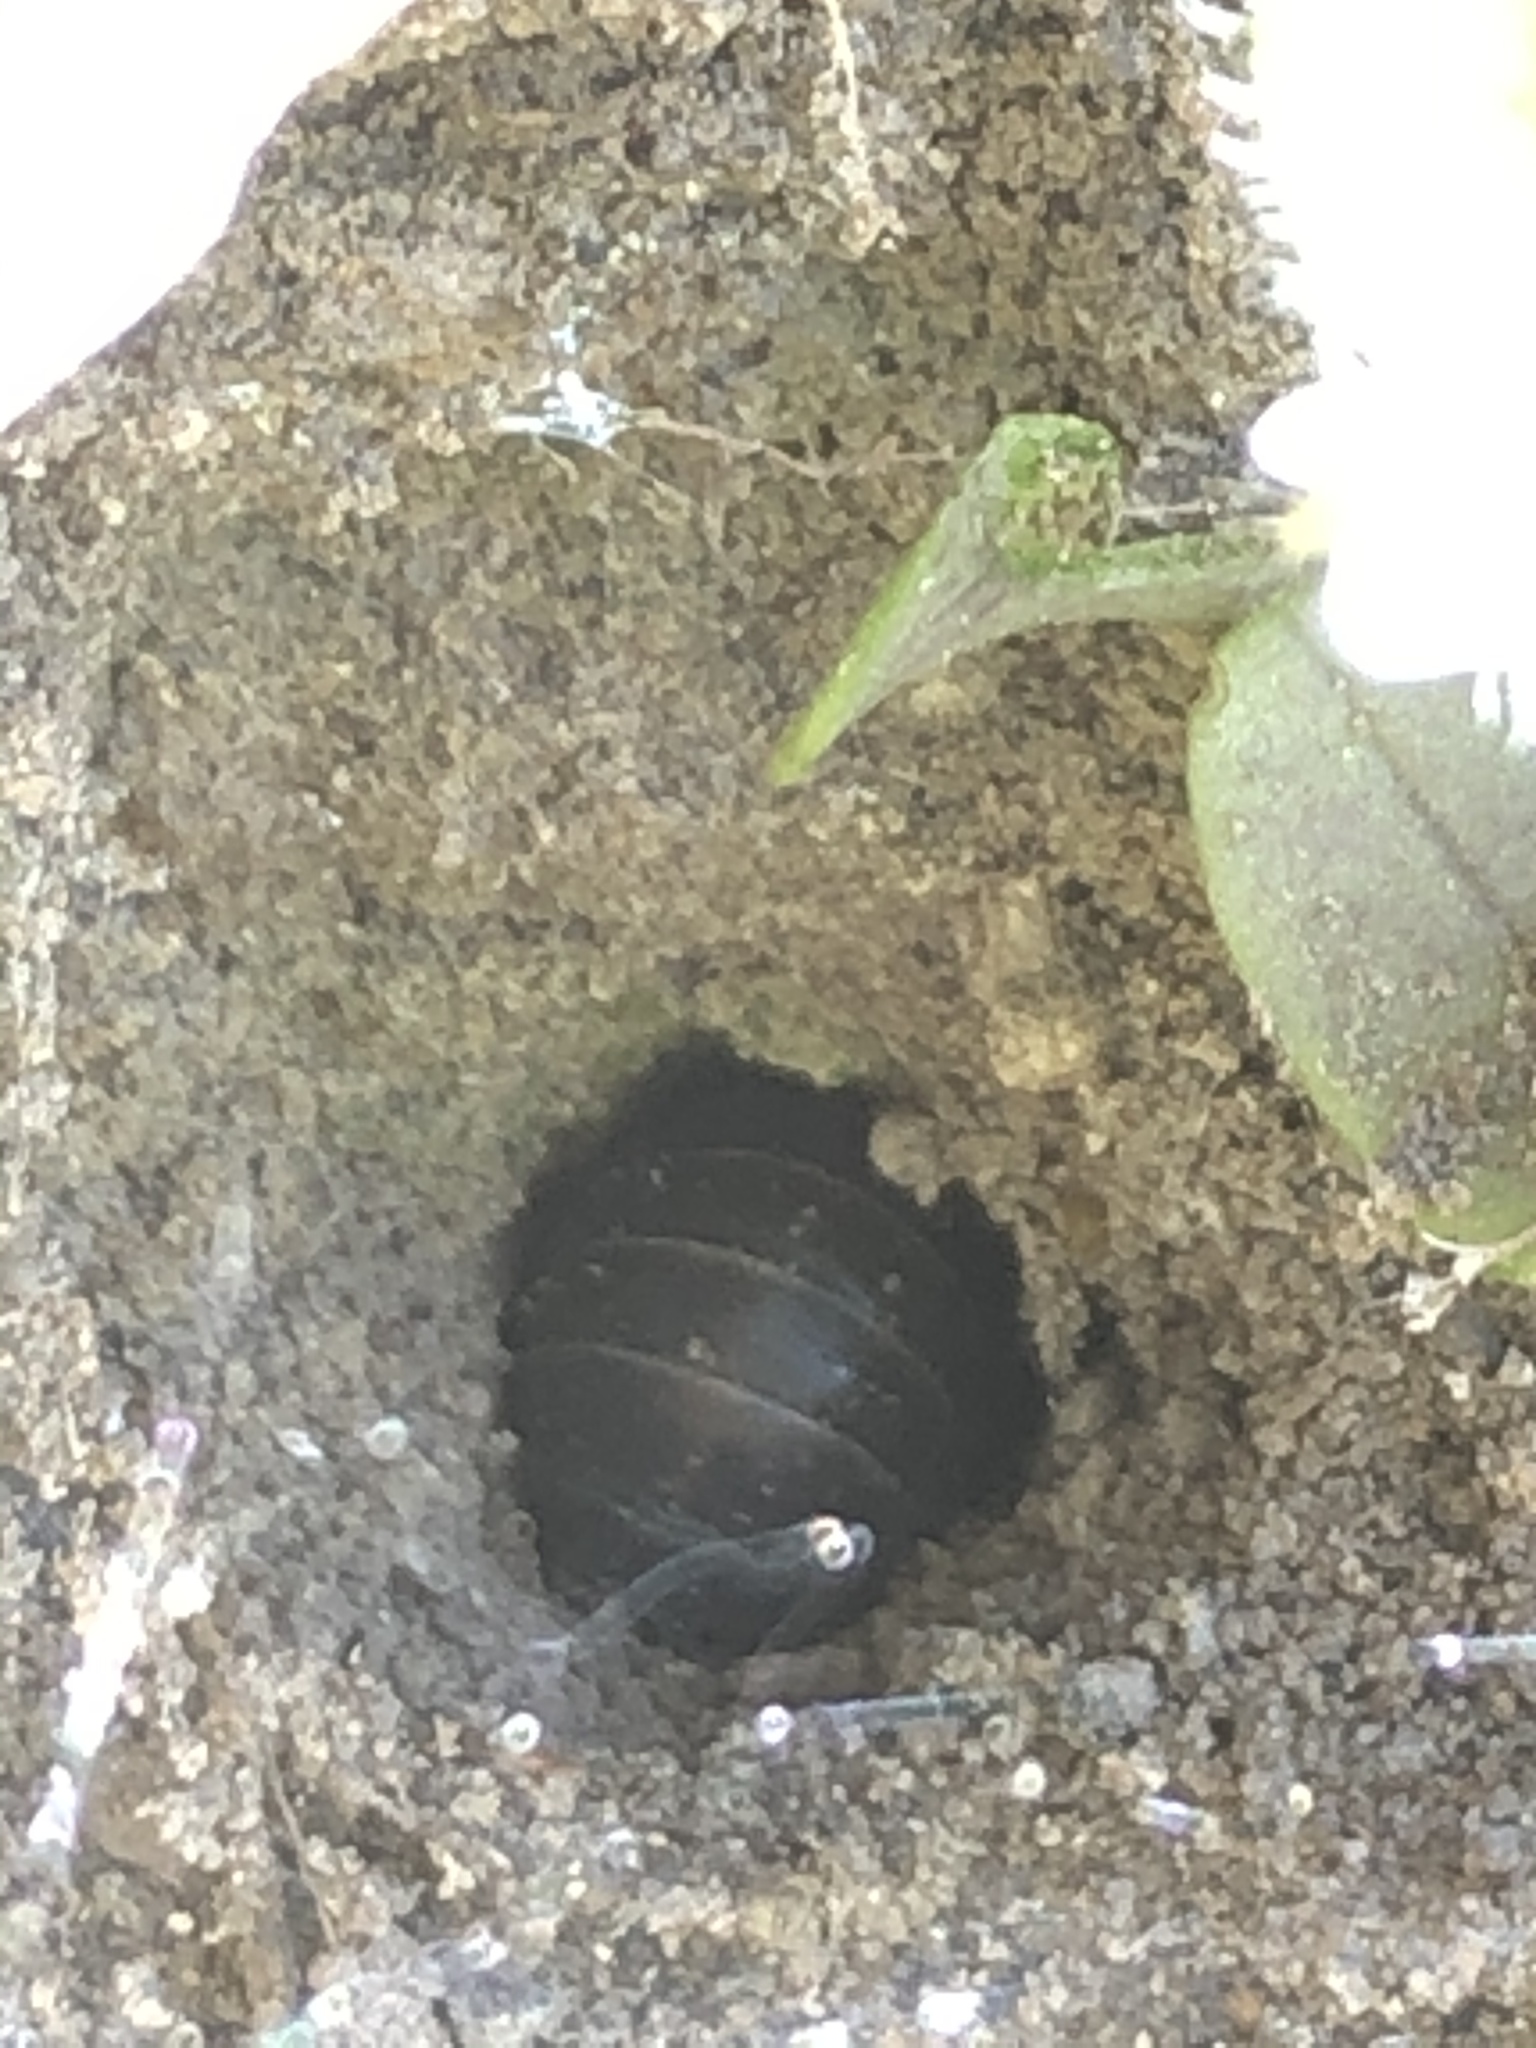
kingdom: Animalia
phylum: Arthropoda
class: Malacostraca
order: Isopoda
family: Armadillidiidae
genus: Armadillidium
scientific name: Armadillidium vulgare
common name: Common pill woodlouse
